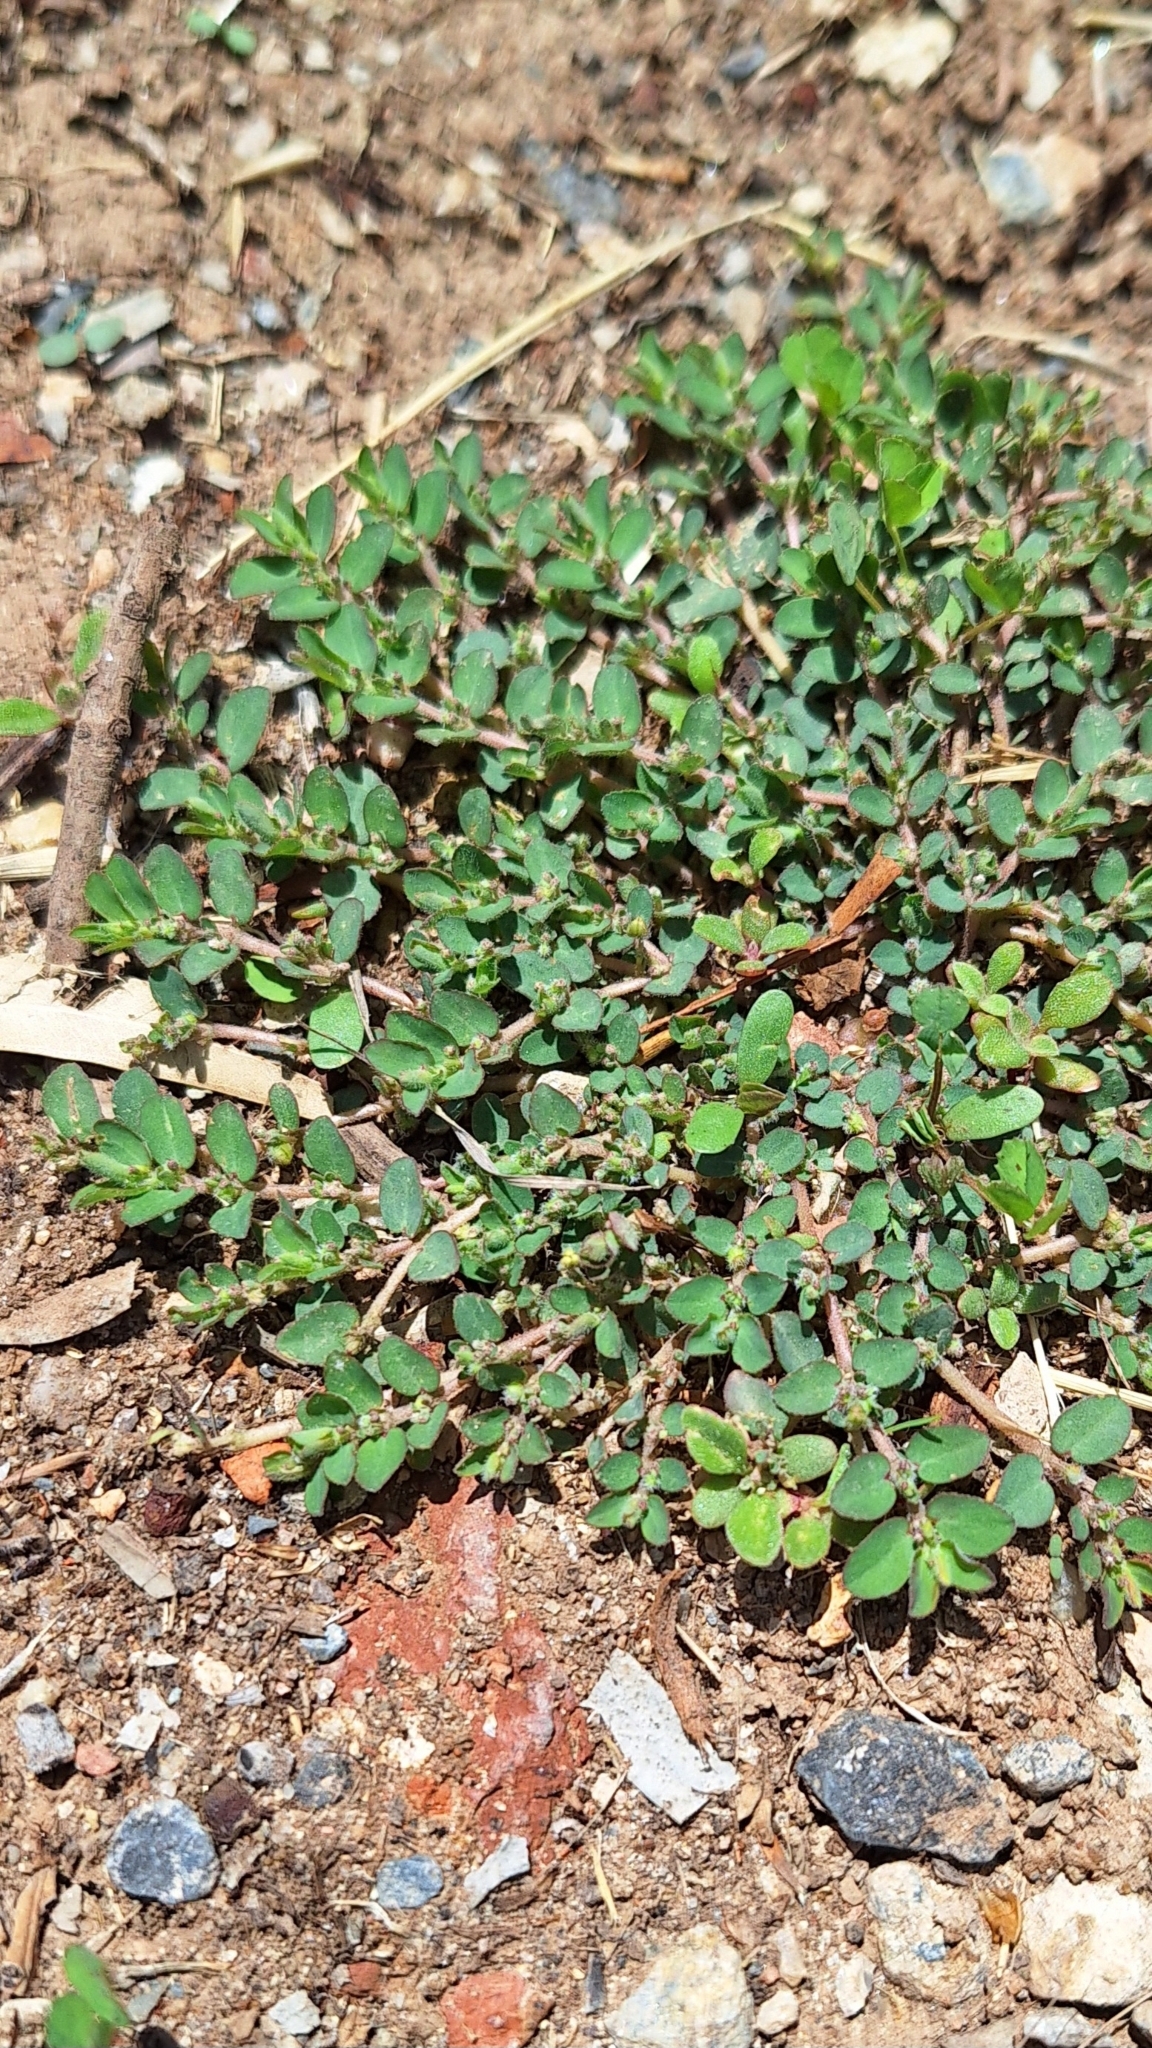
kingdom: Plantae
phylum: Tracheophyta
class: Magnoliopsida
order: Malpighiales
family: Euphorbiaceae
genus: Euphorbia
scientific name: Euphorbia prostrata
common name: Prostrate sandmat
